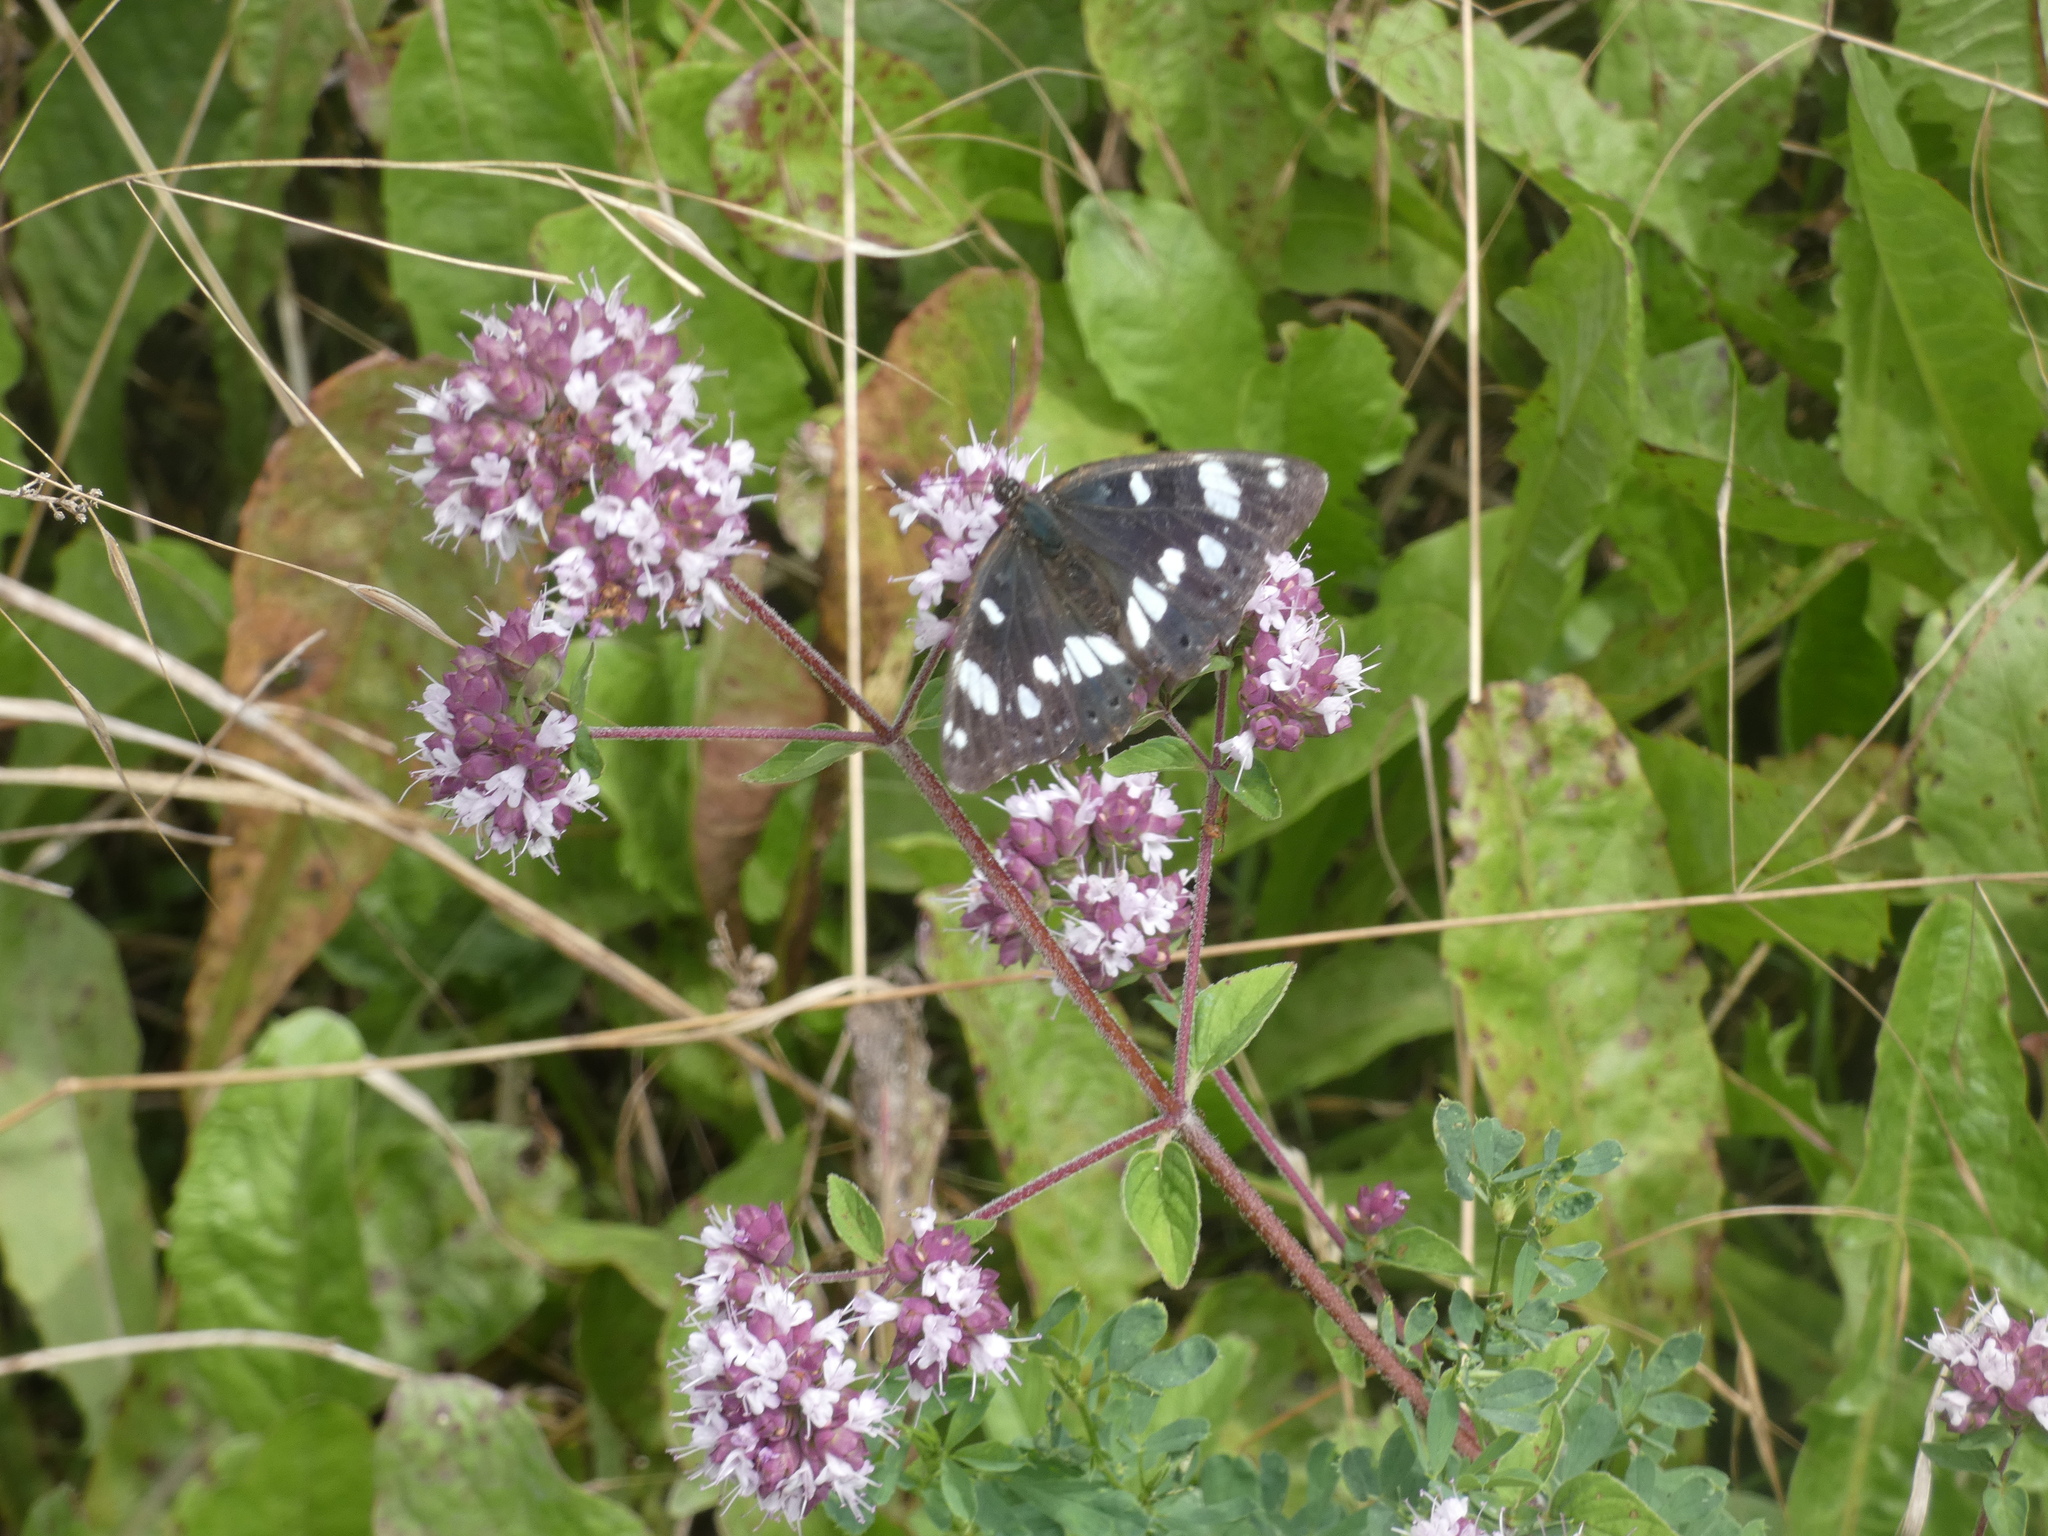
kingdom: Animalia
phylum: Arthropoda
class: Insecta
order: Lepidoptera
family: Nymphalidae
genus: Limenitis
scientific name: Limenitis reducta
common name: Southern white admiral
